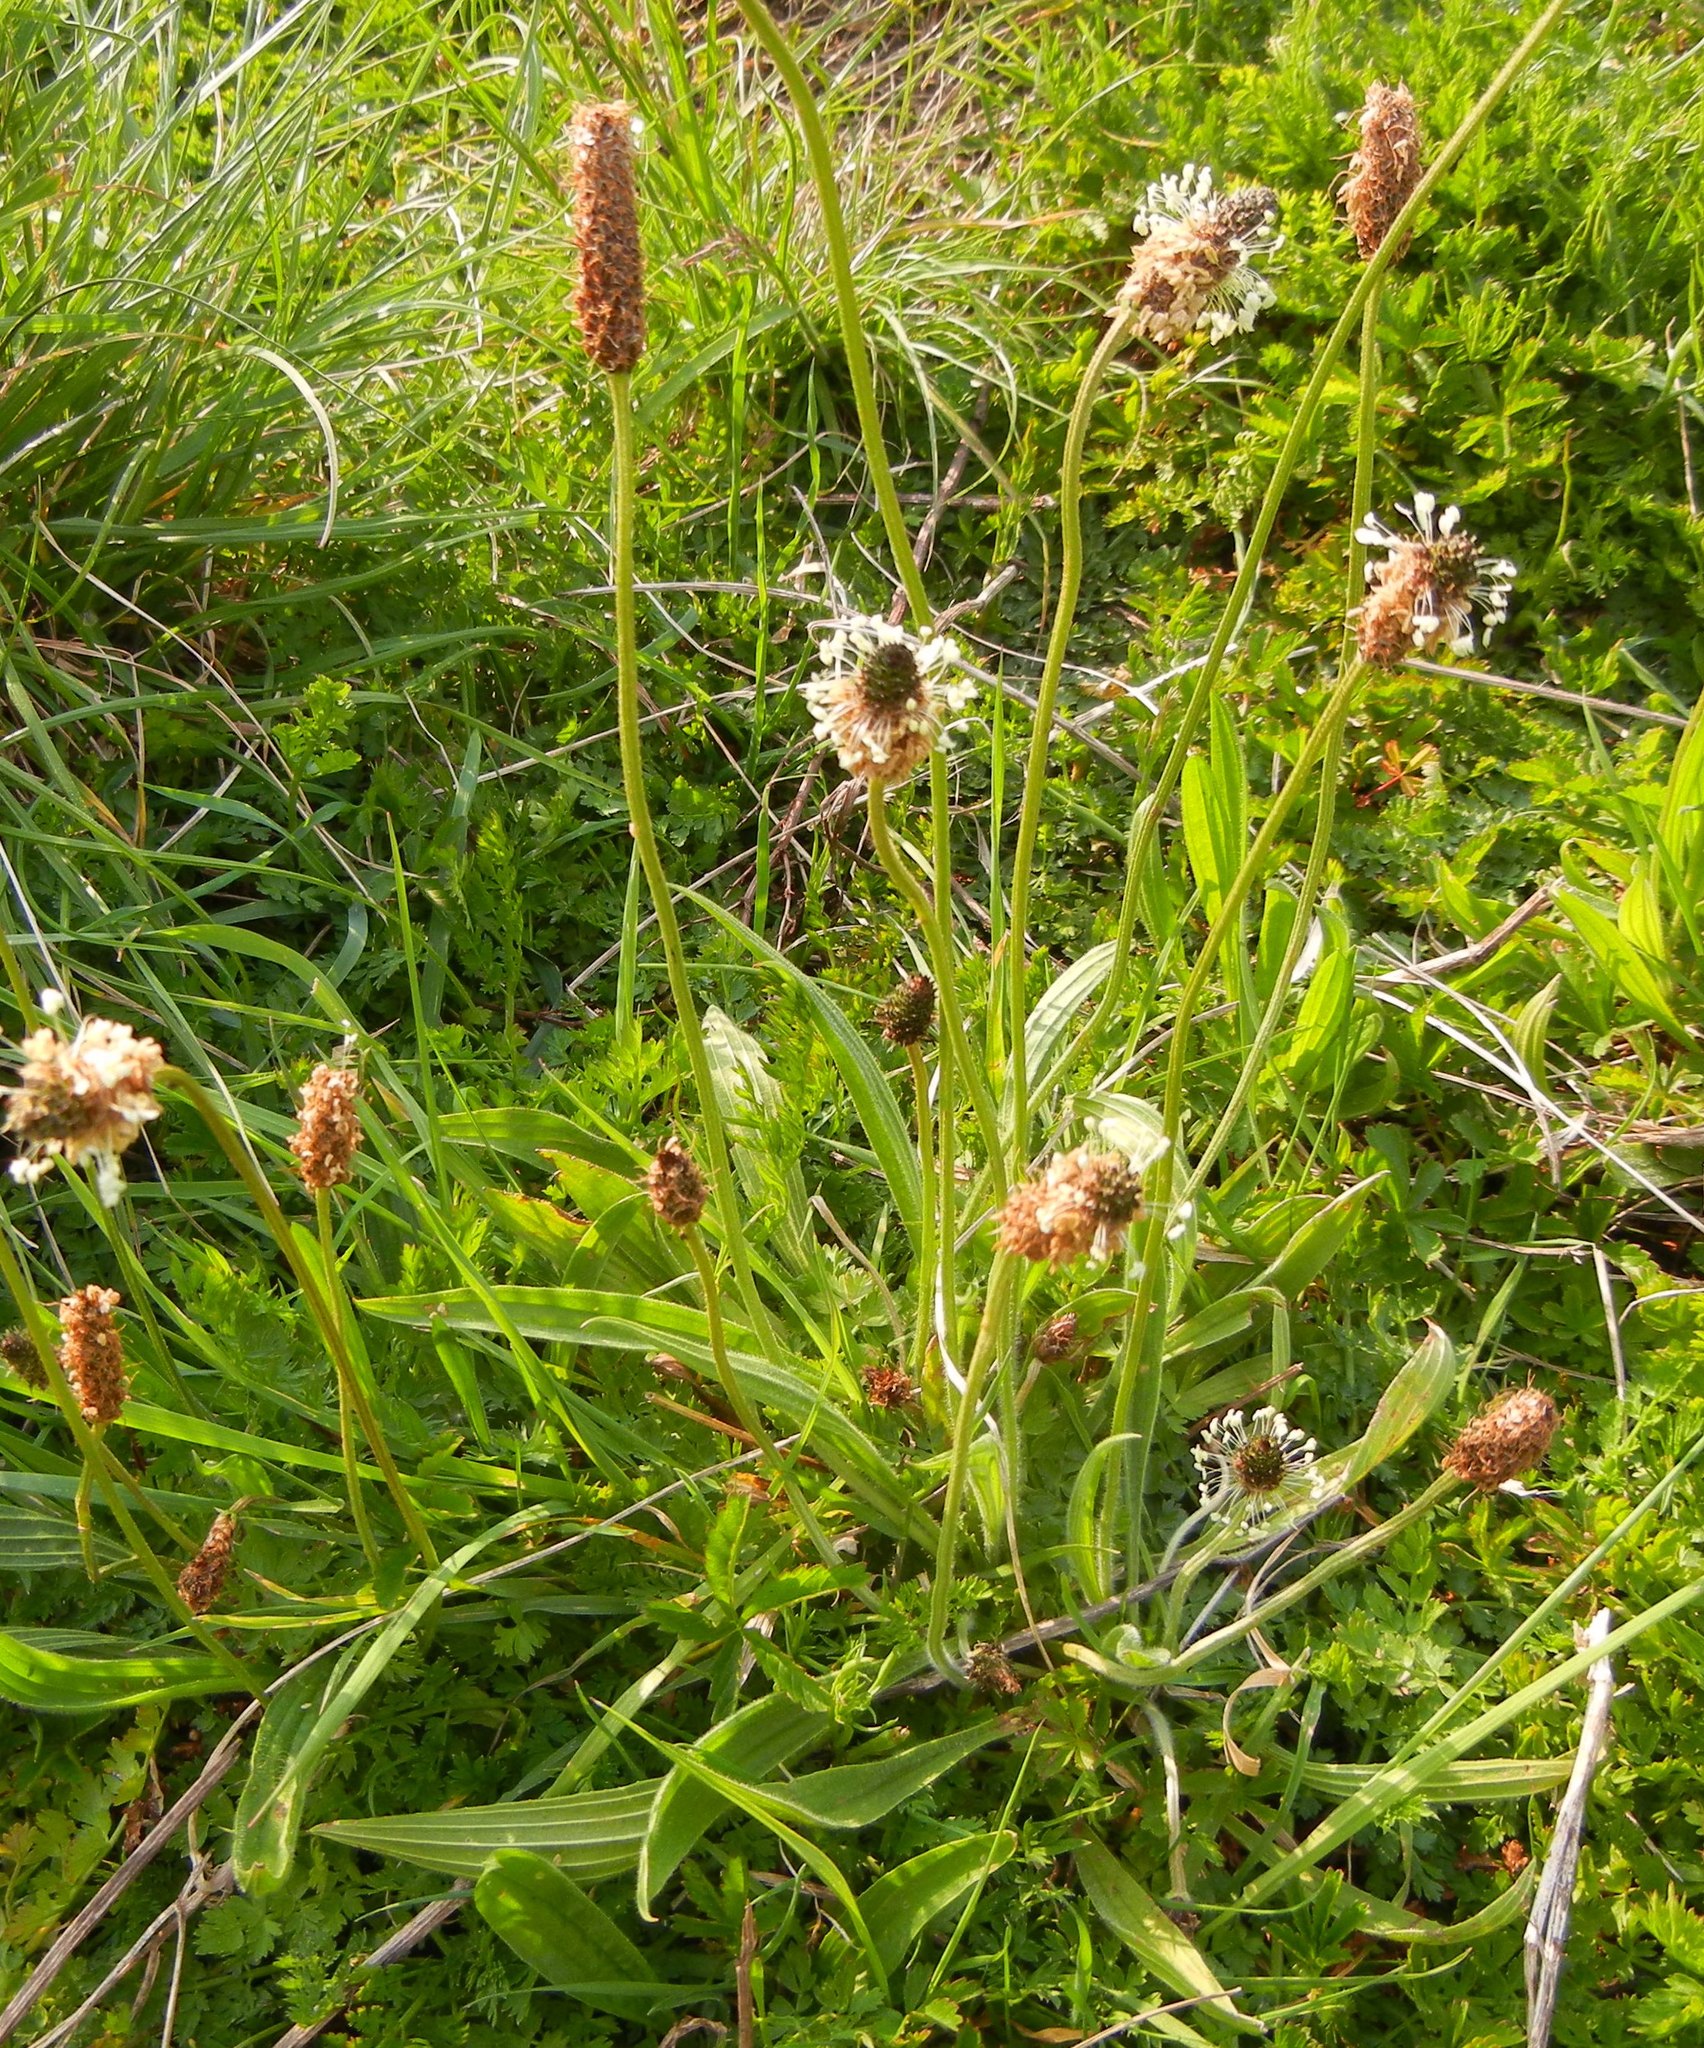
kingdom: Plantae
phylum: Tracheophyta
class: Magnoliopsida
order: Lamiales
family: Plantaginaceae
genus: Plantago
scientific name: Plantago lanceolata
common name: Ribwort plantain
